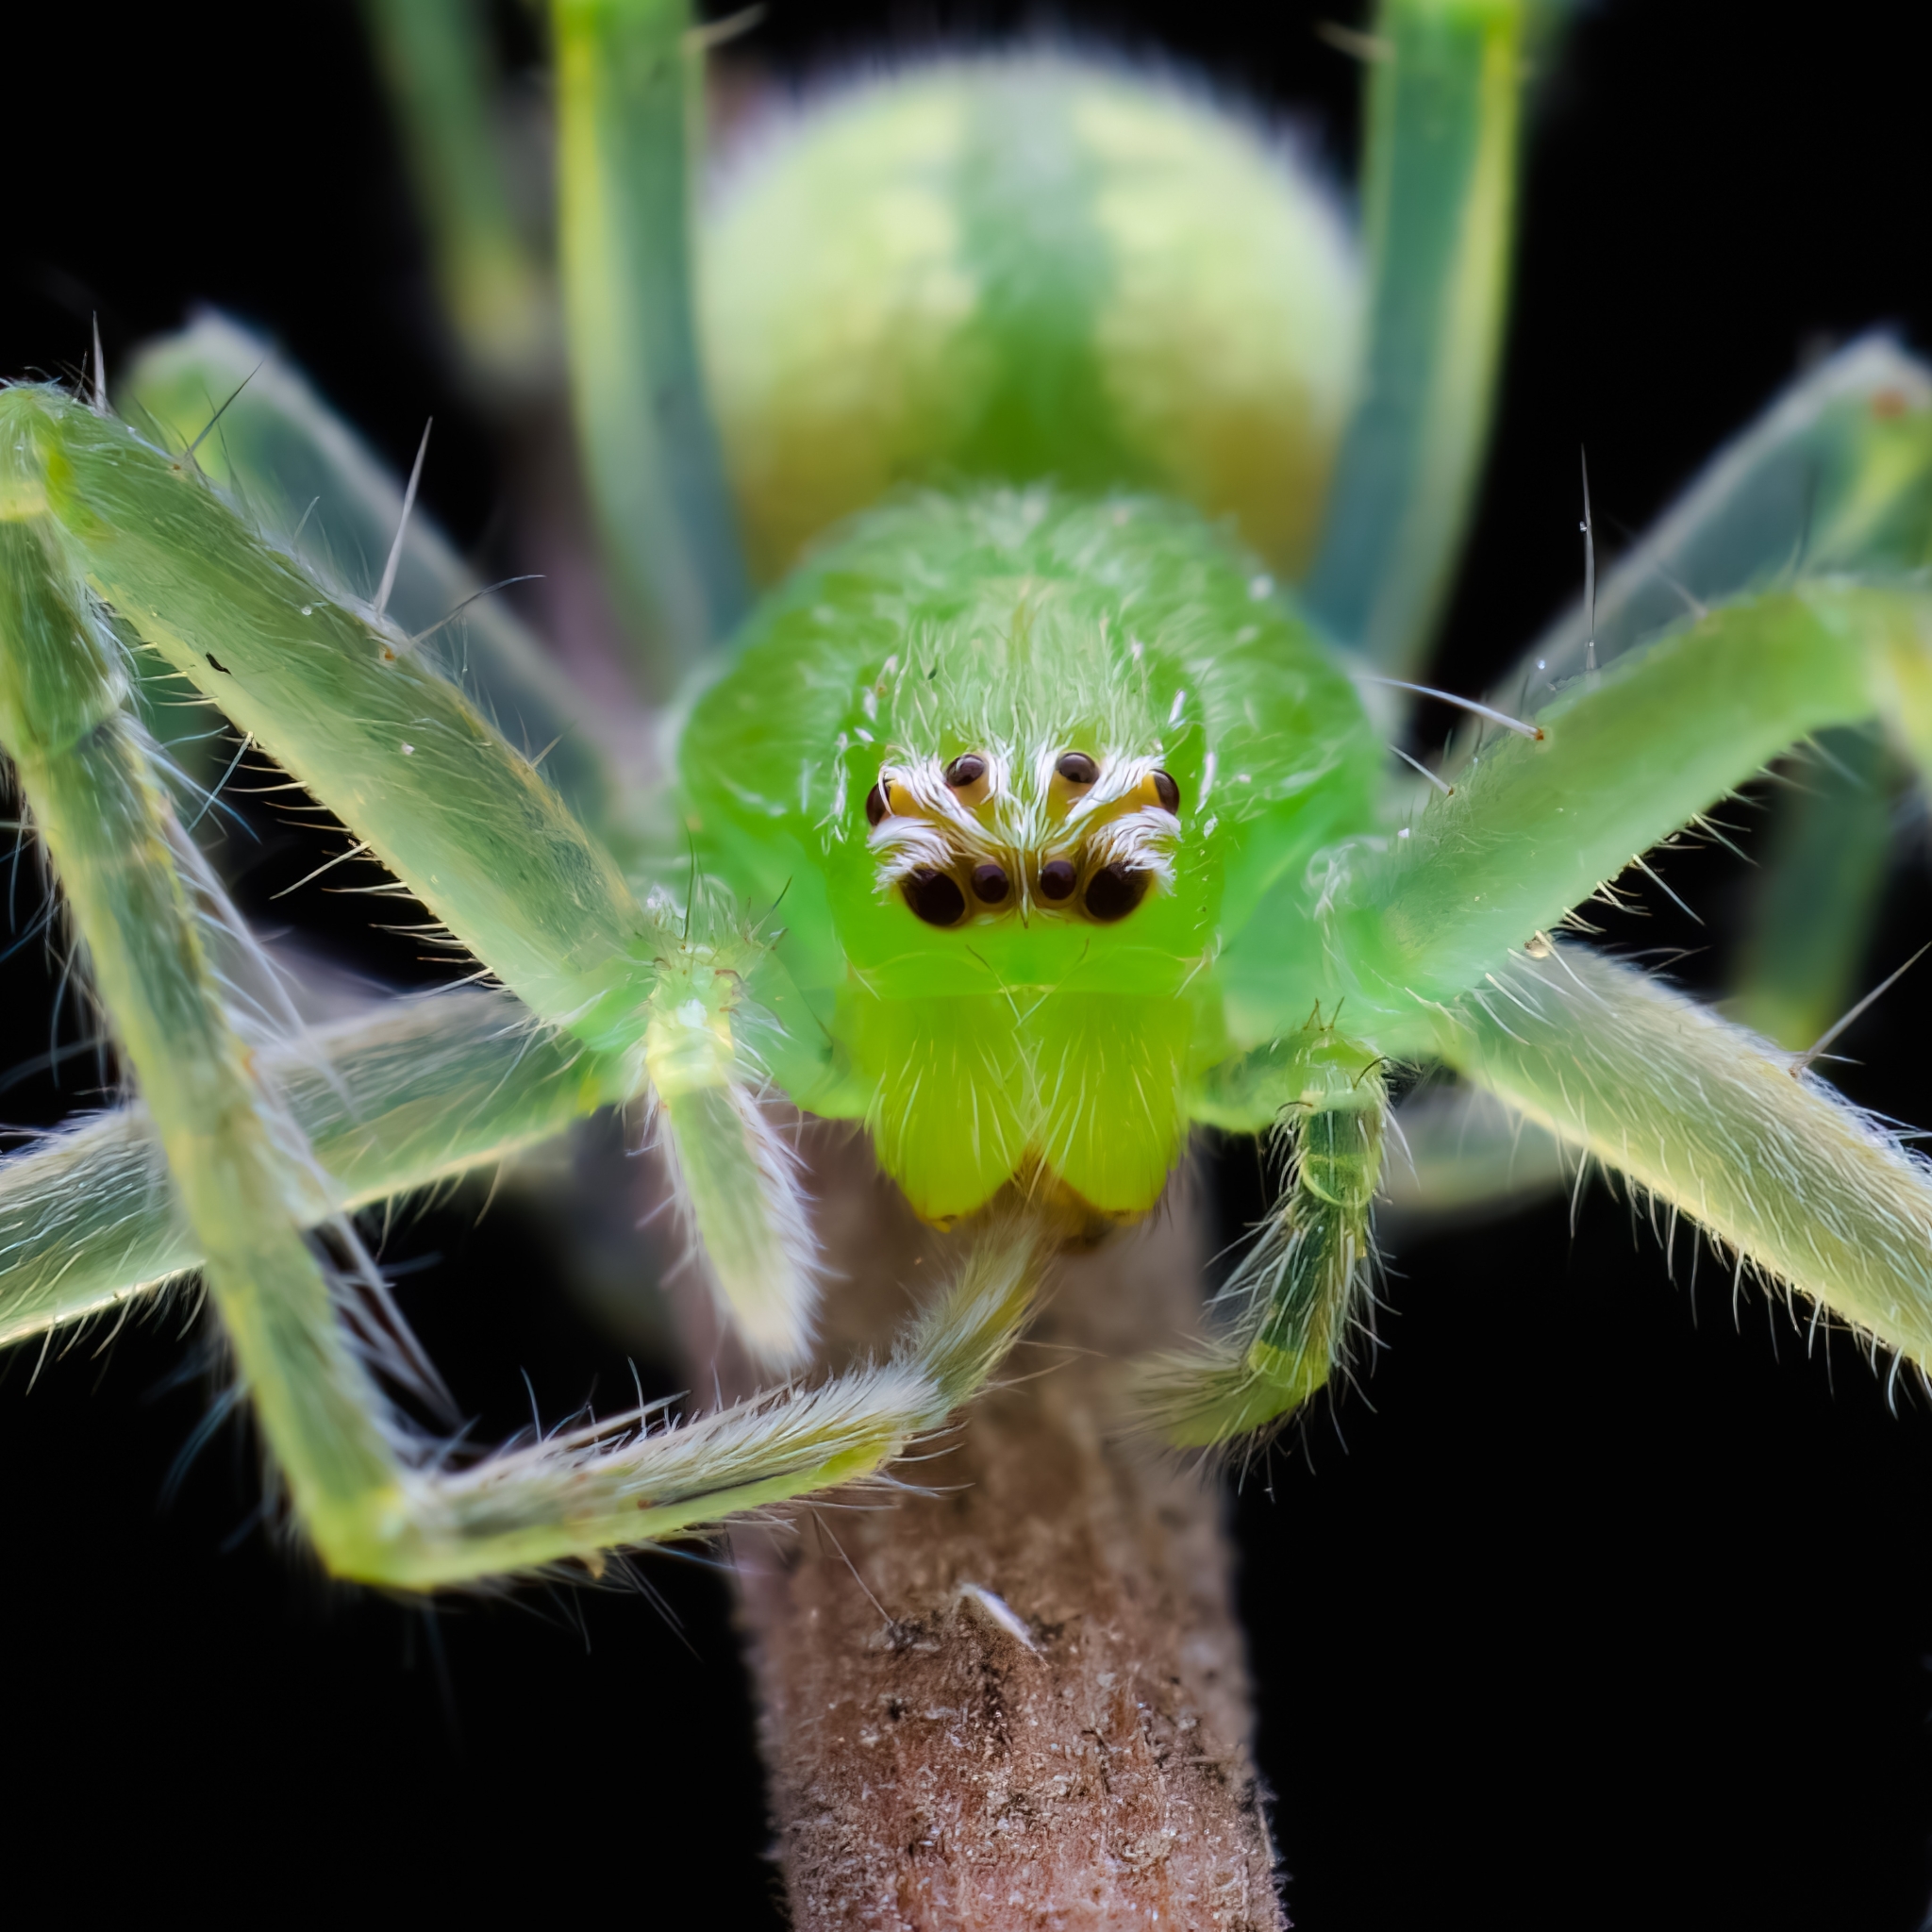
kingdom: Animalia
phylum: Arthropoda
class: Arachnida
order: Araneae
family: Sparassidae
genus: Palystes
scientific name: Palystes flavidus
